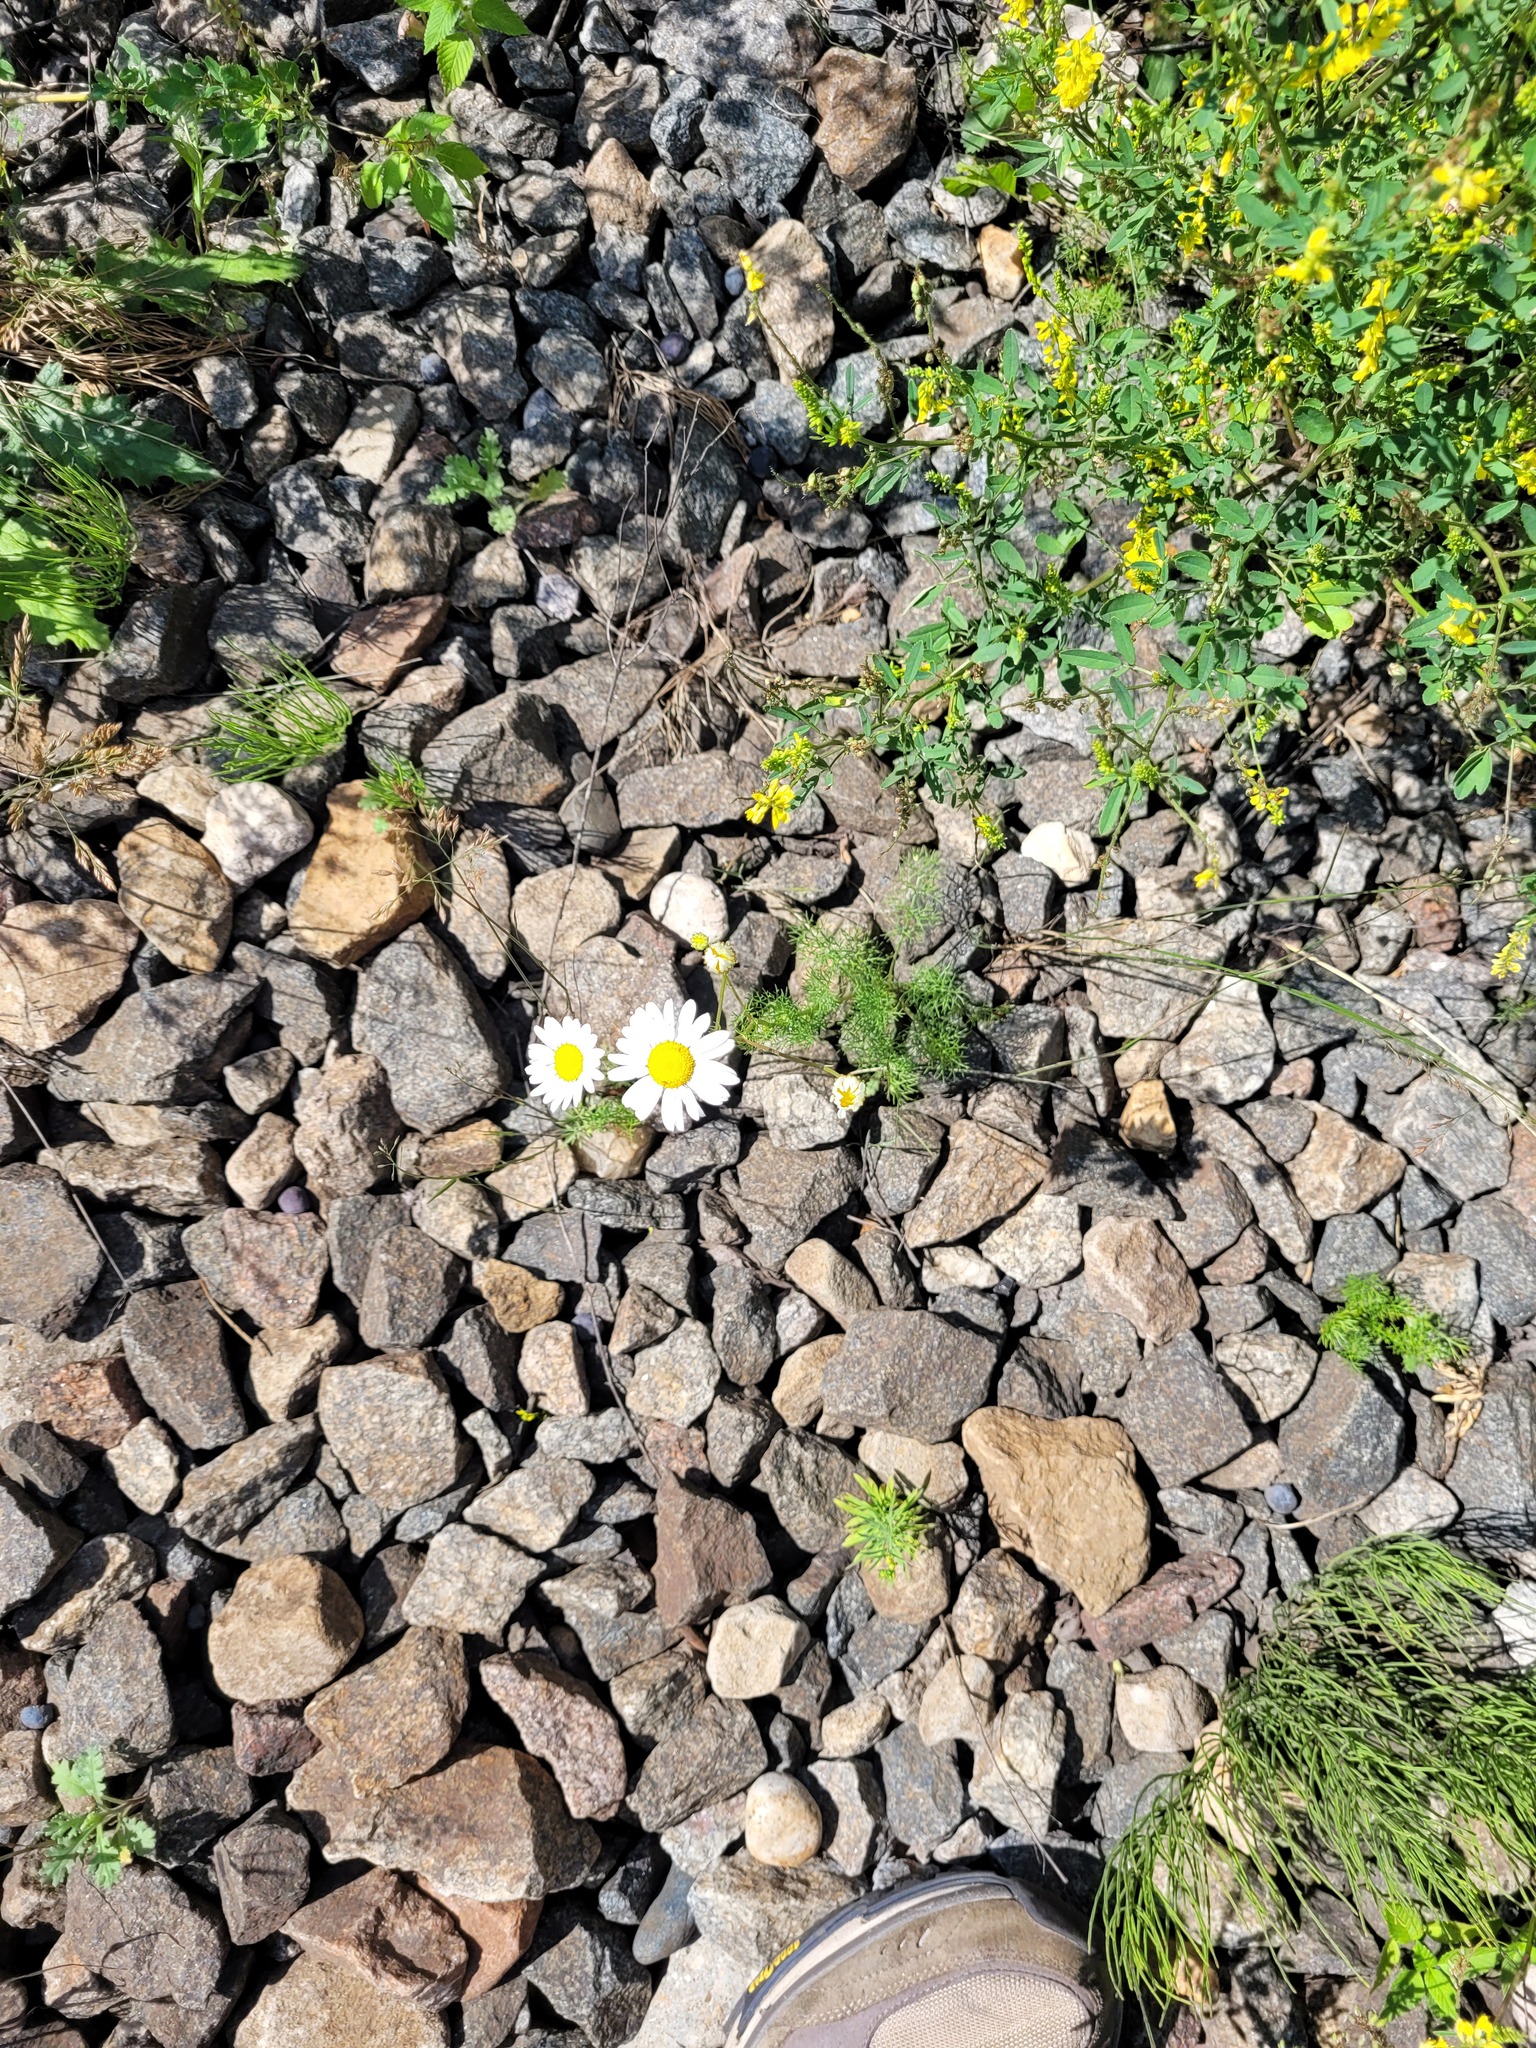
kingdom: Plantae
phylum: Tracheophyta
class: Magnoliopsida
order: Asterales
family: Asteraceae
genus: Tripleurospermum
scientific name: Tripleurospermum inodorum
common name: Scentless mayweed
